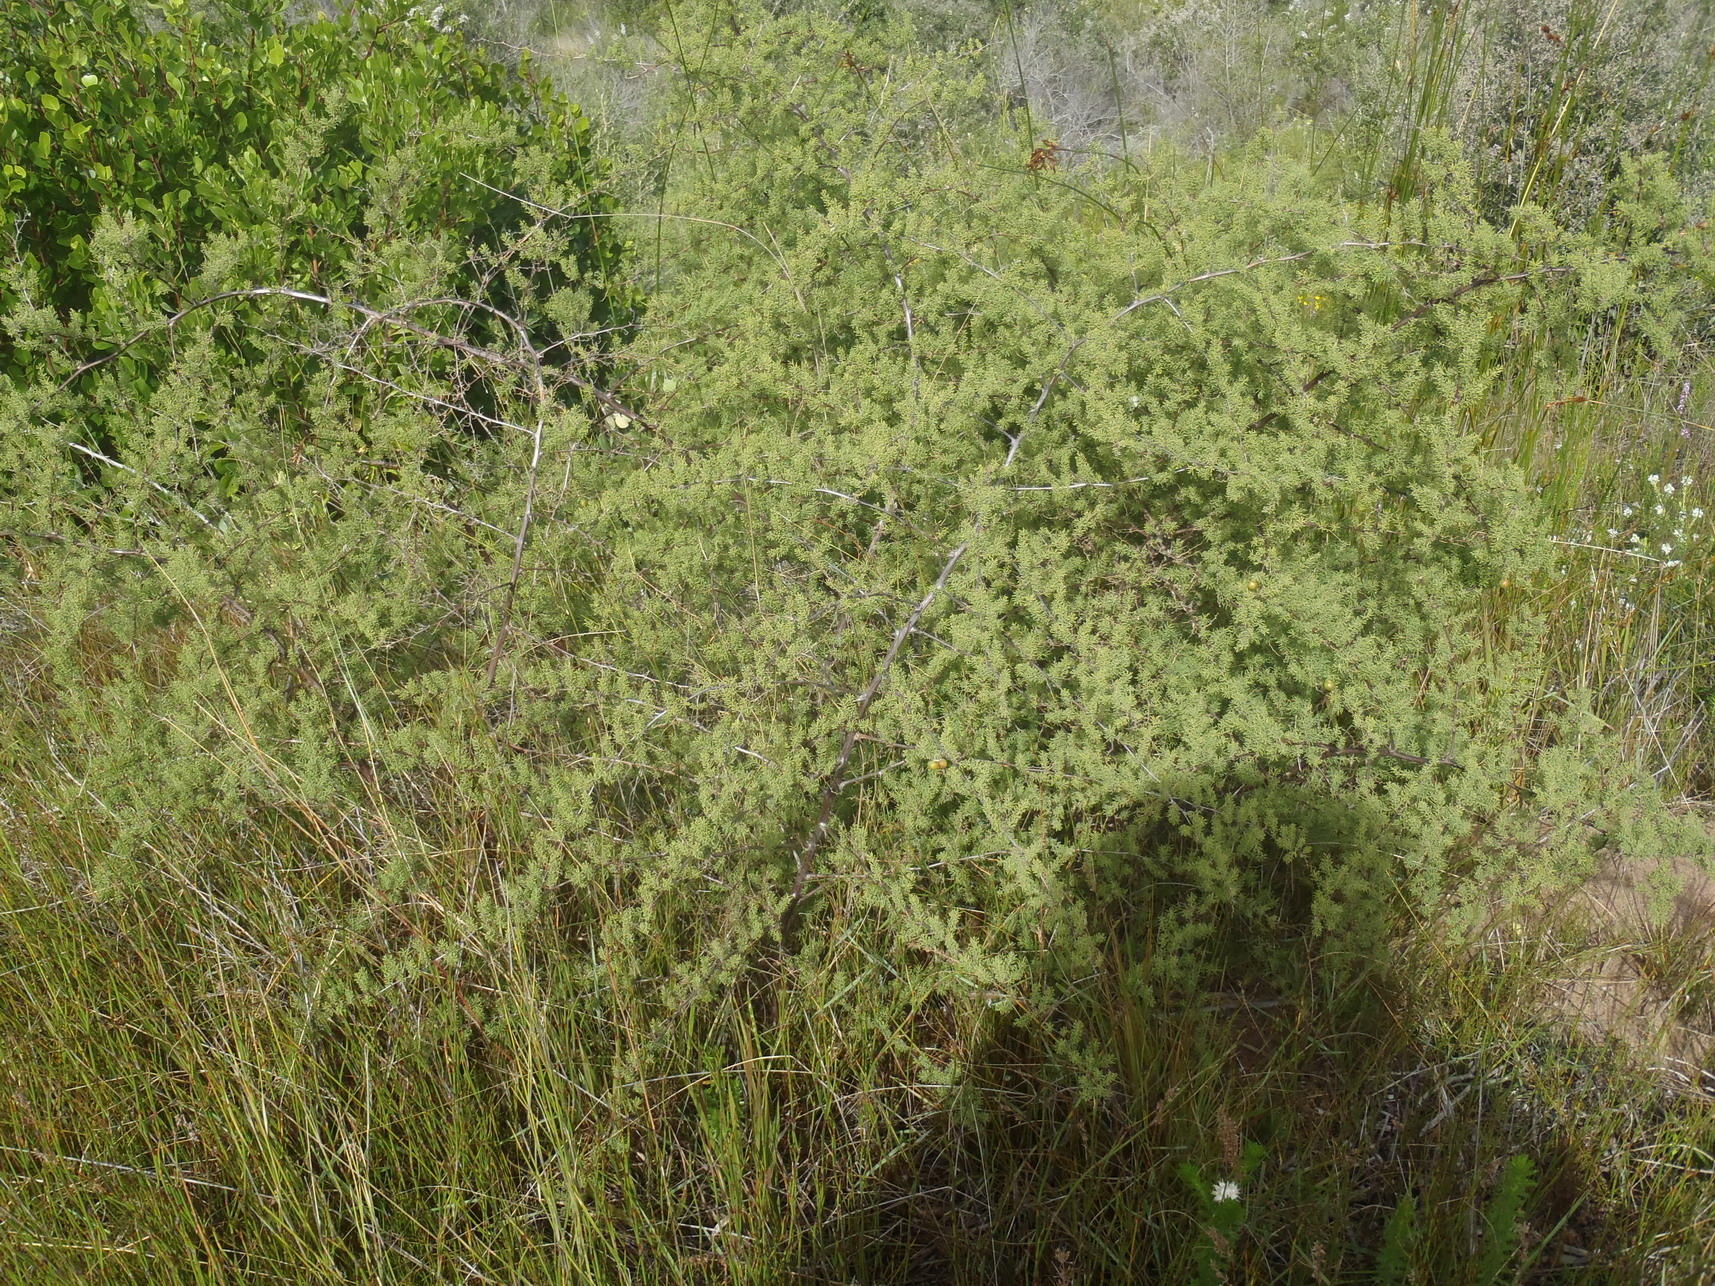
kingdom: Plantae
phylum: Tracheophyta
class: Liliopsida
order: Asparagales
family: Asparagaceae
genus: Asparagus
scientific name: Asparagus rubicundus
